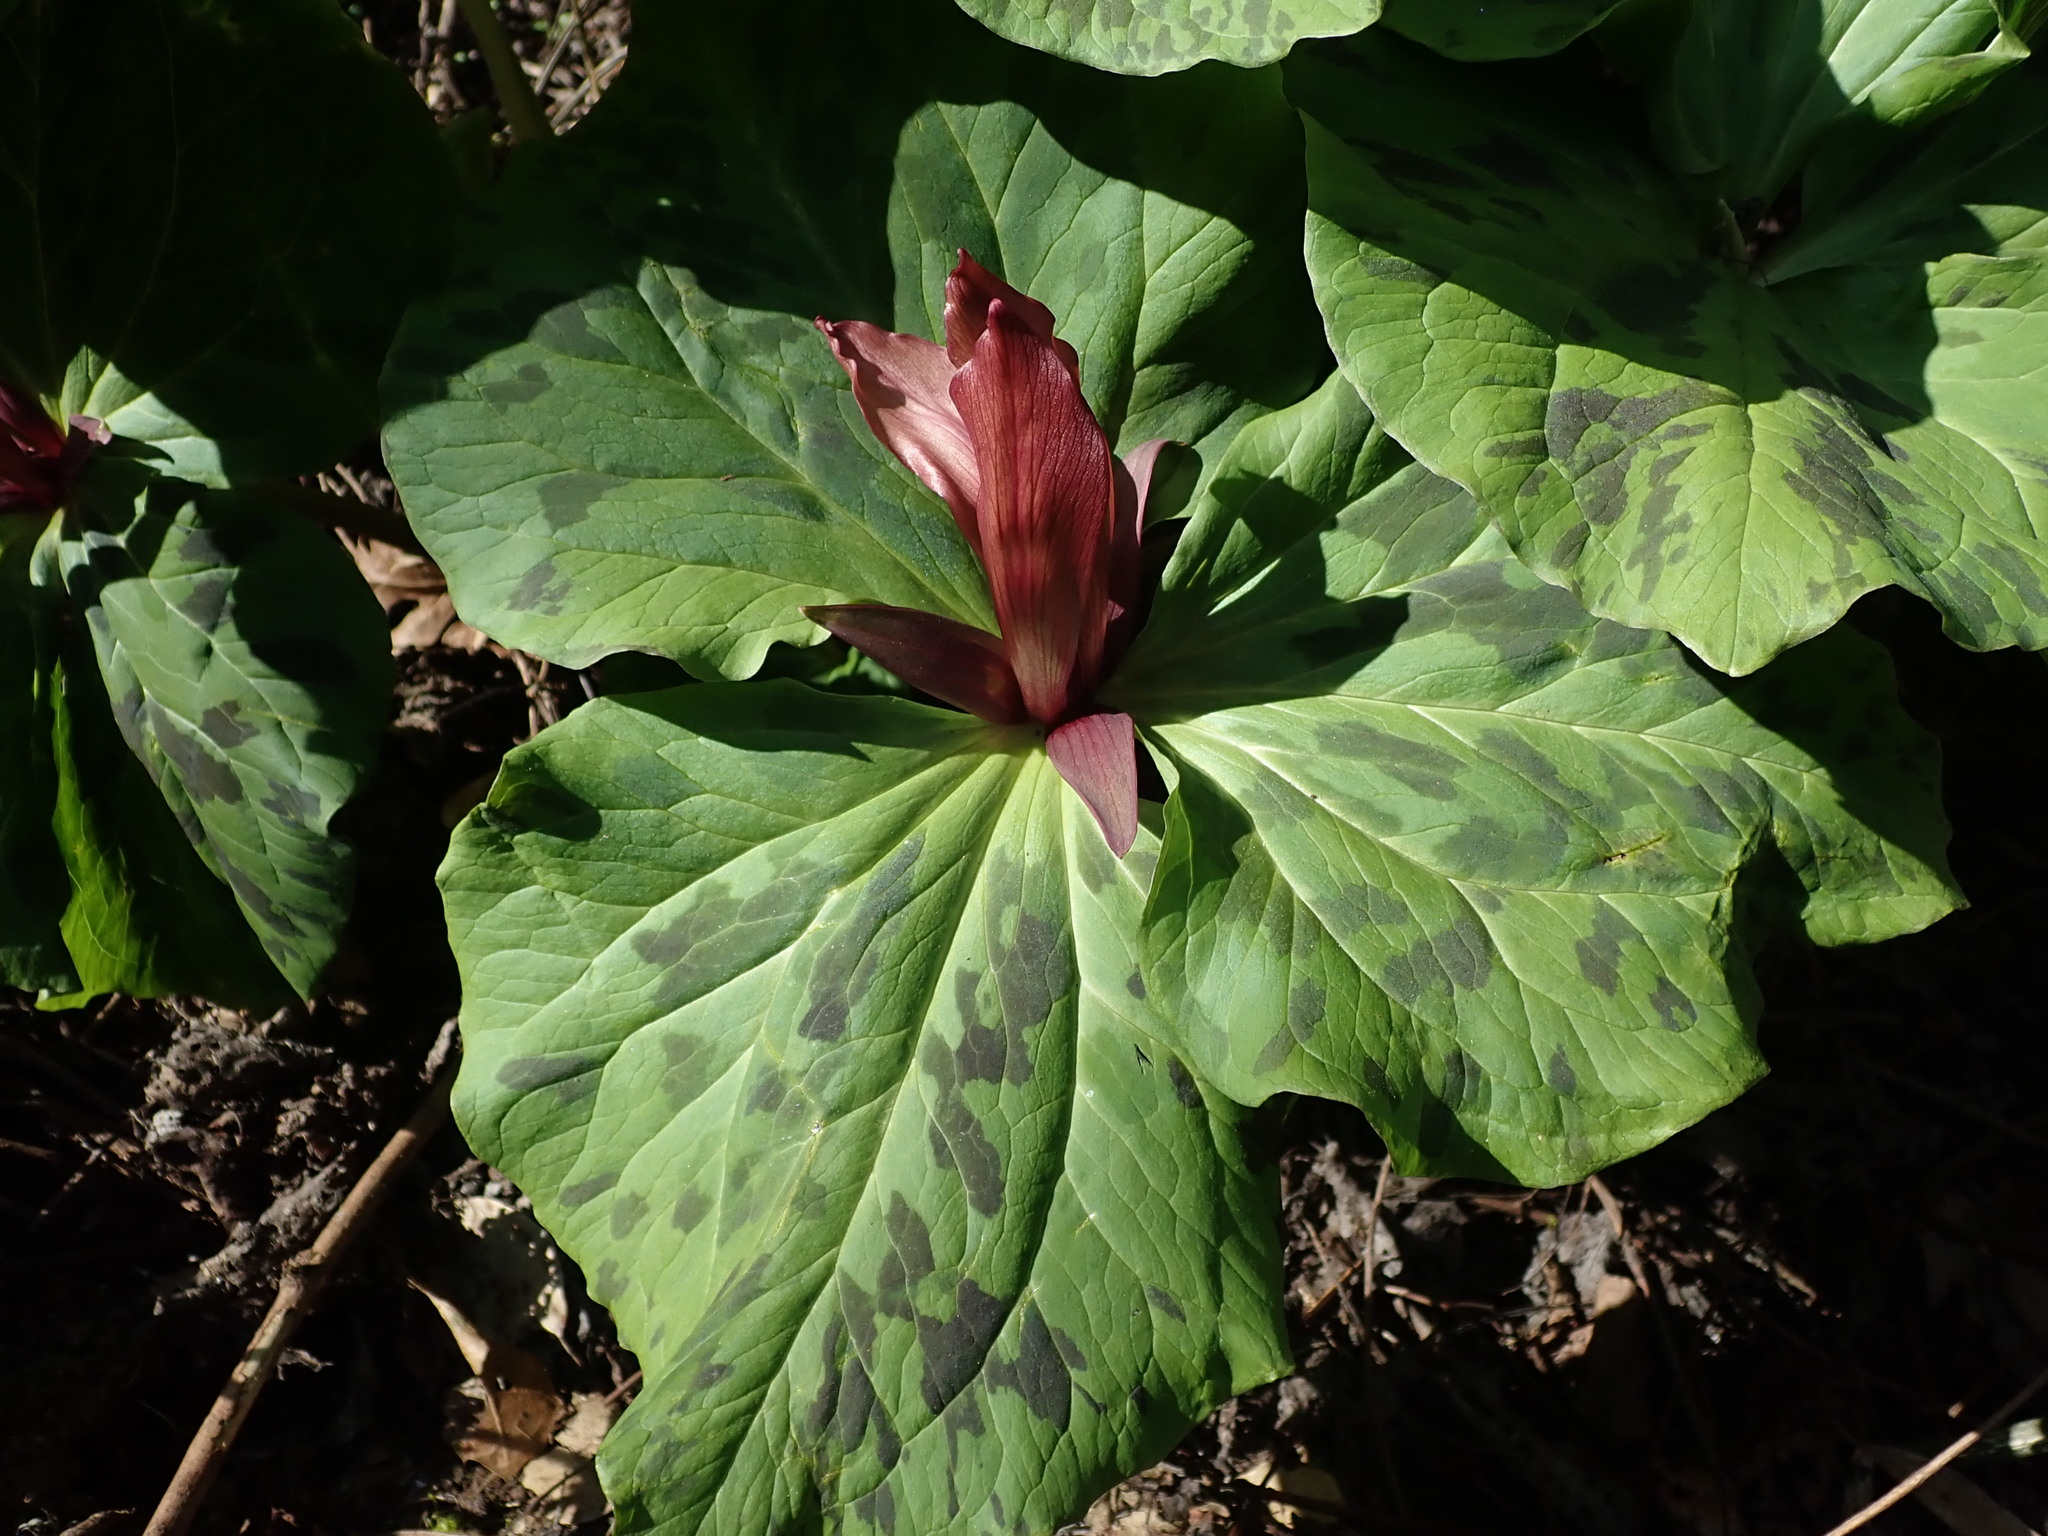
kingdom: Plantae
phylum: Tracheophyta
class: Liliopsida
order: Liliales
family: Melanthiaceae
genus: Trillium
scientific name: Trillium chloropetalum
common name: Giant trillium
